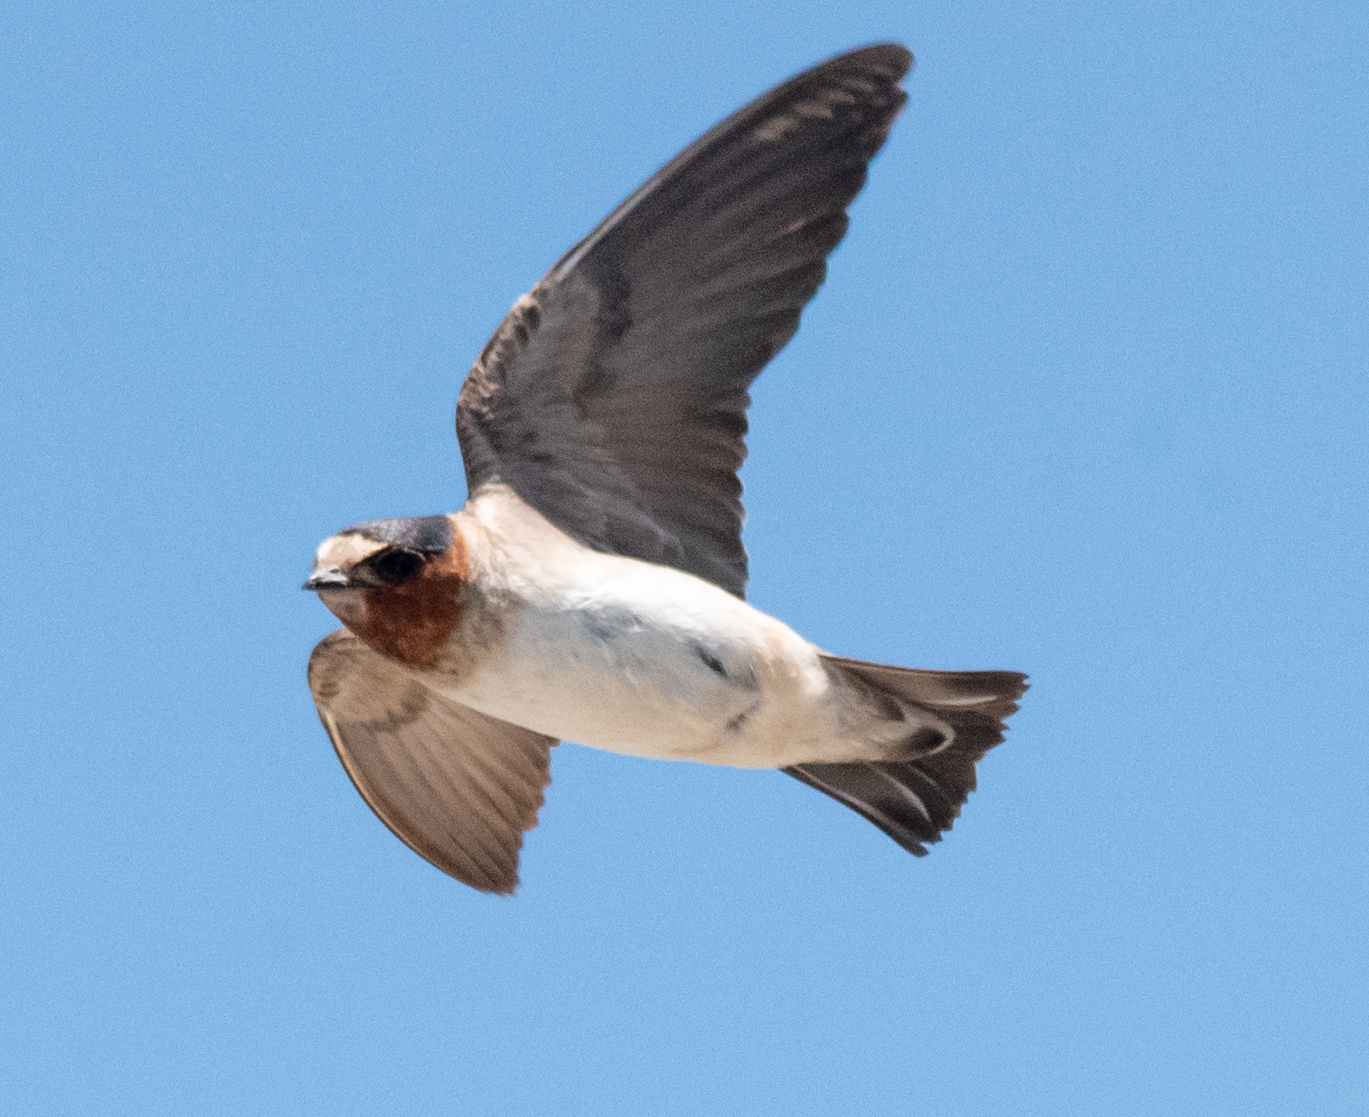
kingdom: Animalia
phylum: Chordata
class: Aves
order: Passeriformes
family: Hirundinidae
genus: Petrochelidon
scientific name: Petrochelidon pyrrhonota
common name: American cliff swallow
